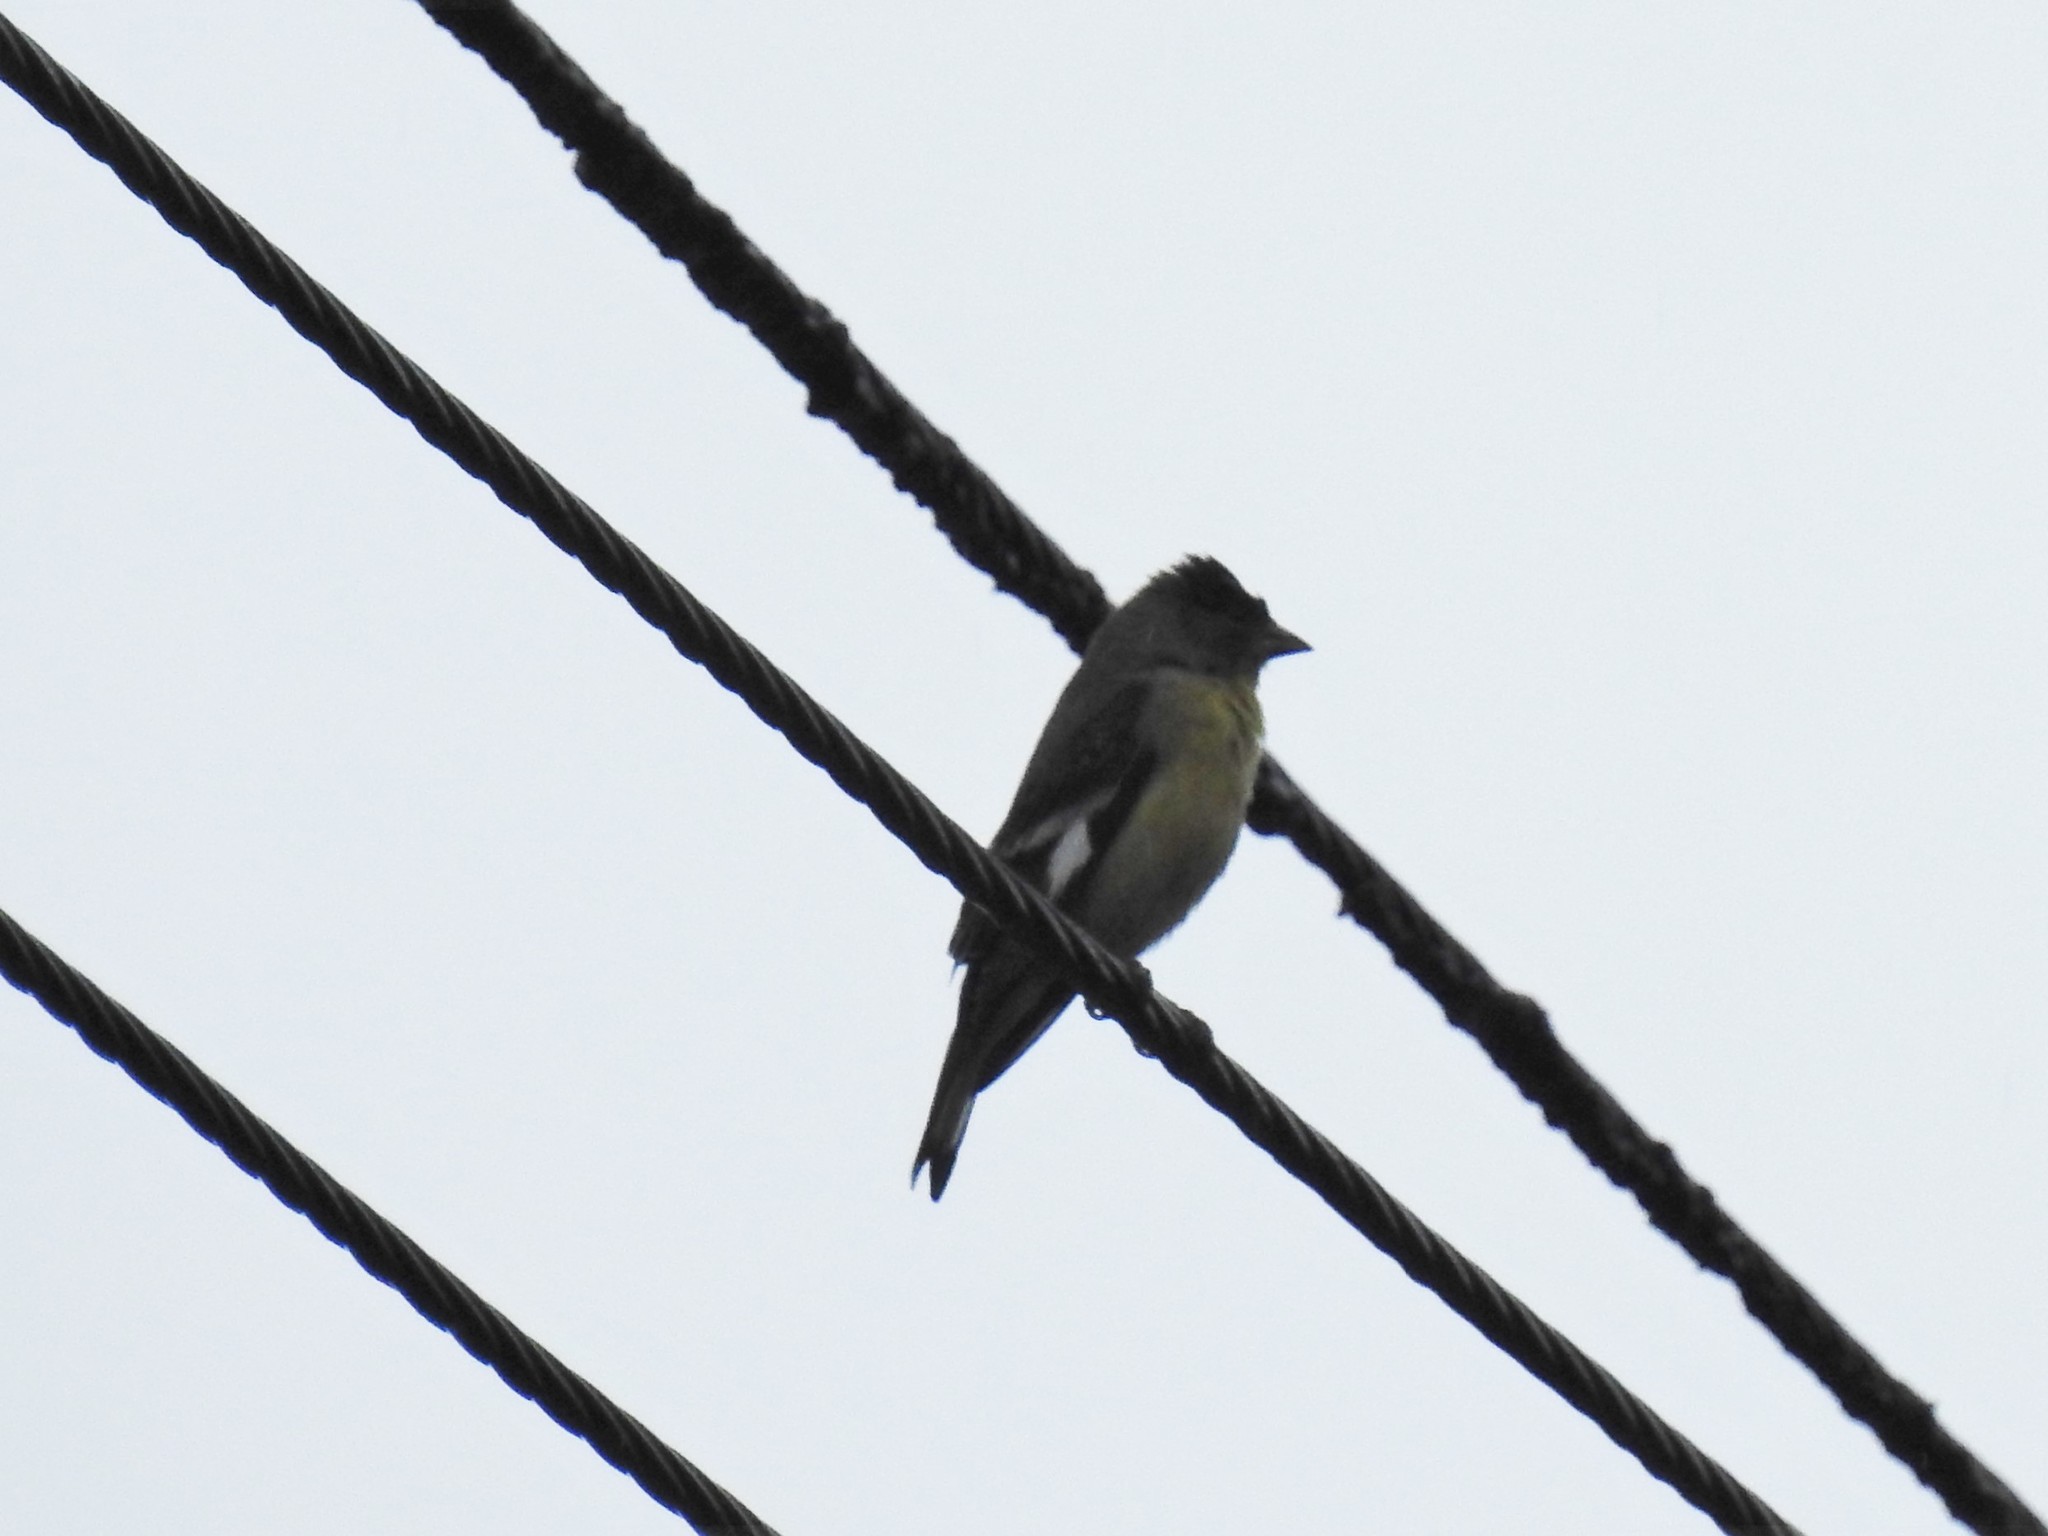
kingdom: Animalia
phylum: Chordata
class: Aves
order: Passeriformes
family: Fringillidae
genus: Spinus
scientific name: Spinus psaltria
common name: Lesser goldfinch
